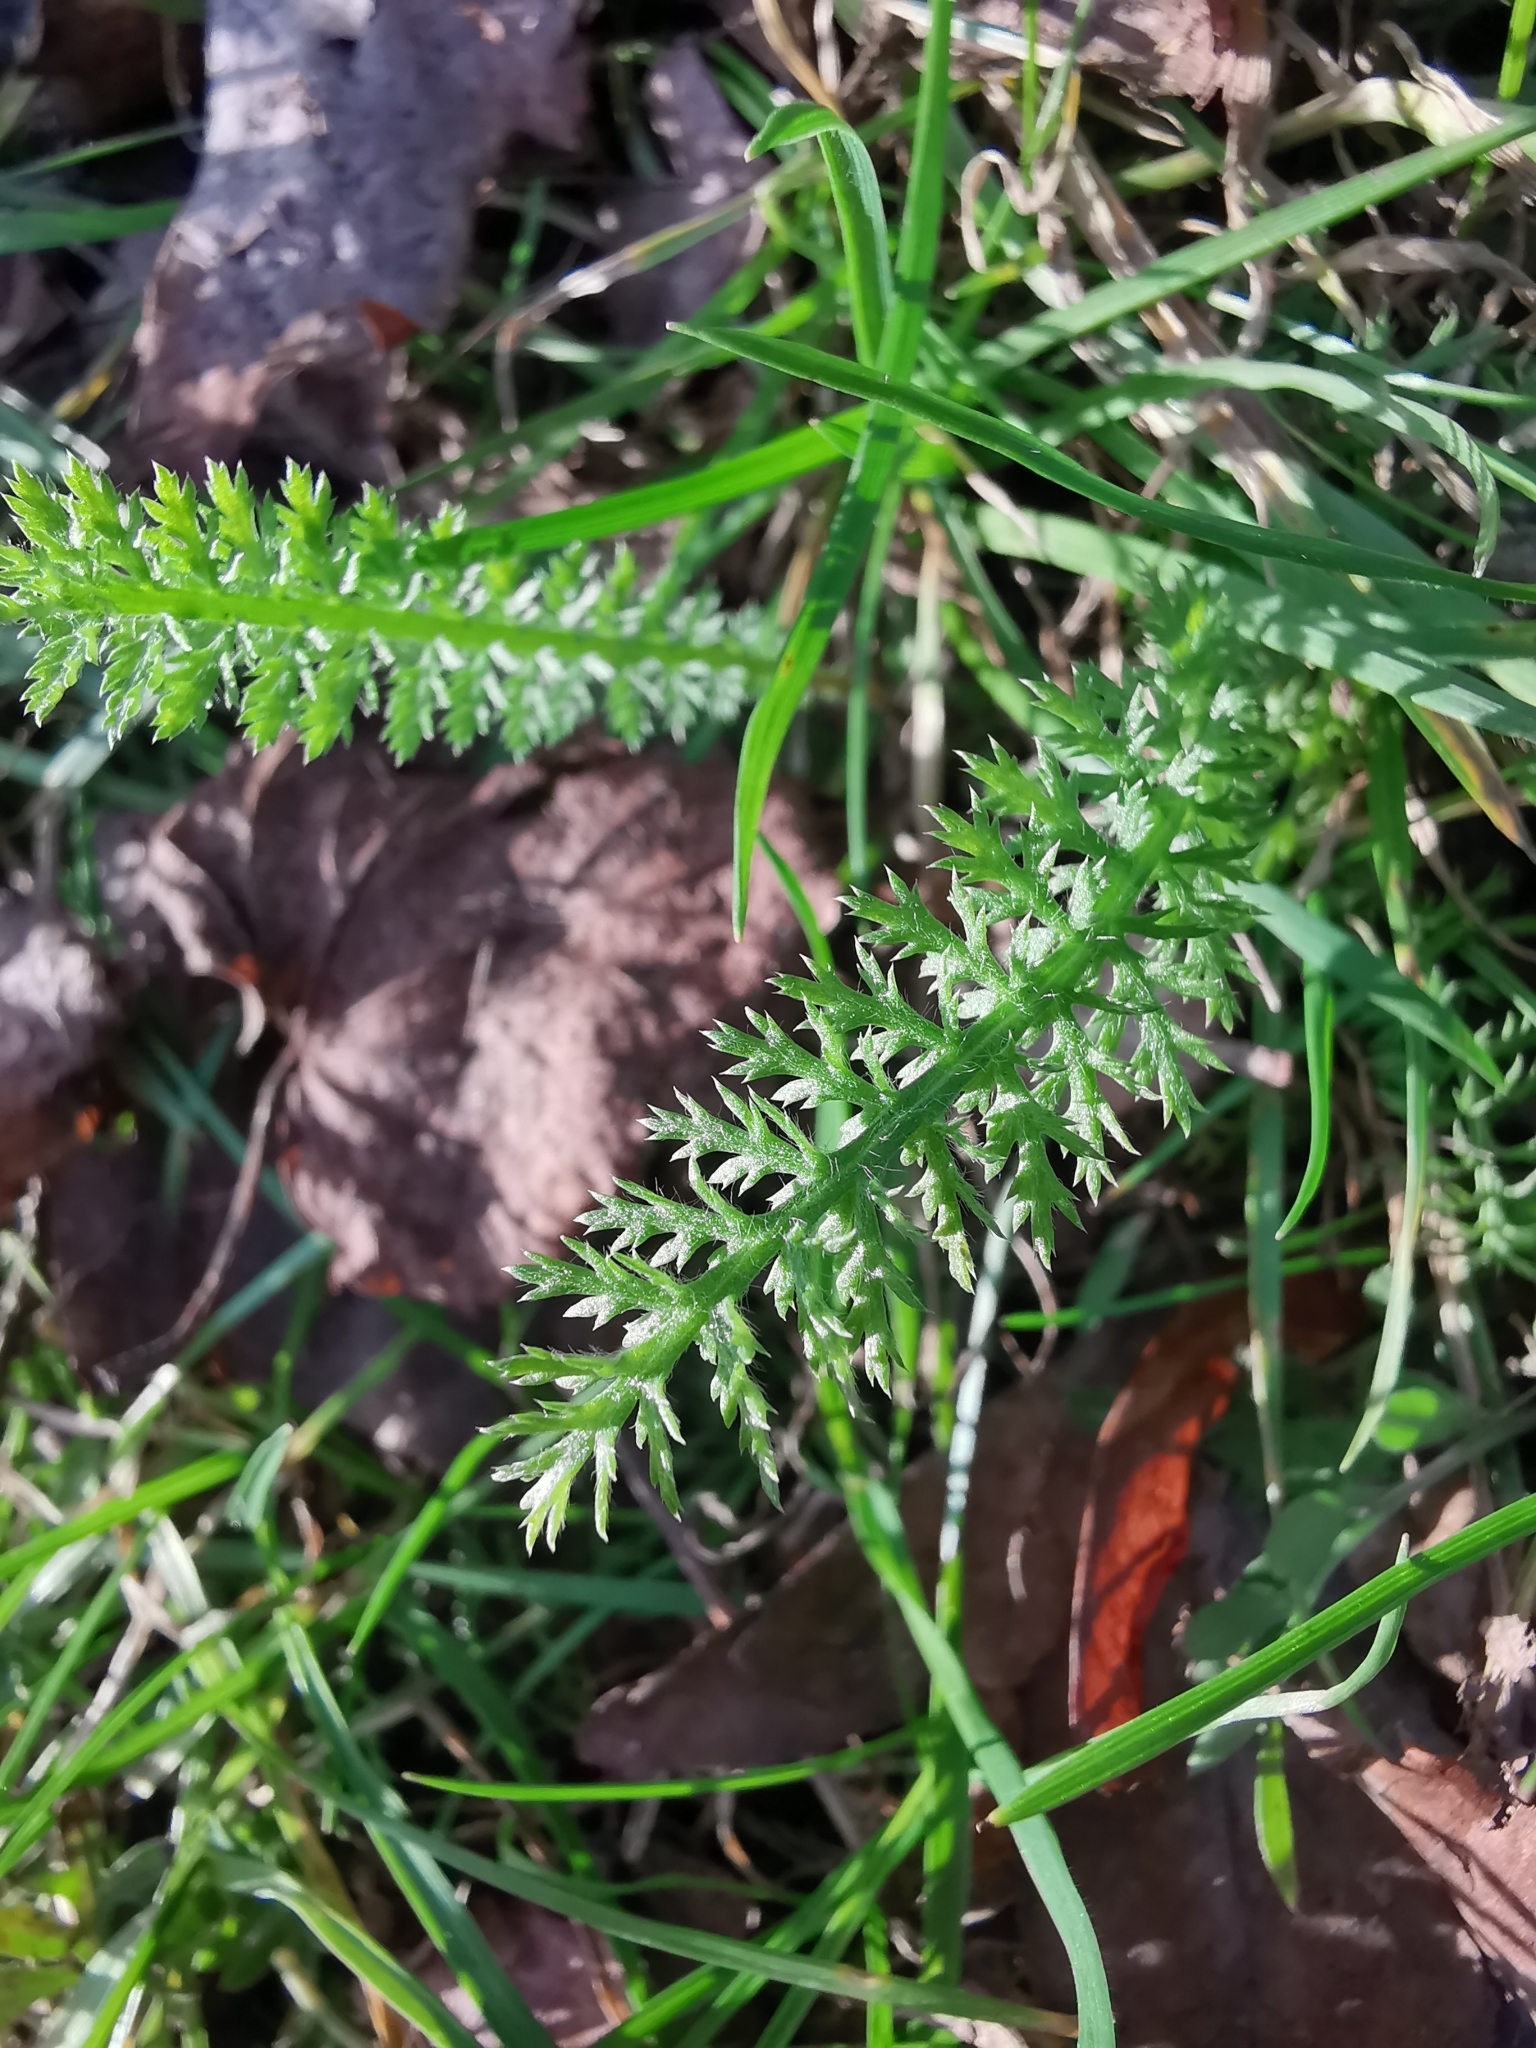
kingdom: Plantae
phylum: Tracheophyta
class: Magnoliopsida
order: Asterales
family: Asteraceae
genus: Achillea
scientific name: Achillea millefolium
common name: Yarrow
